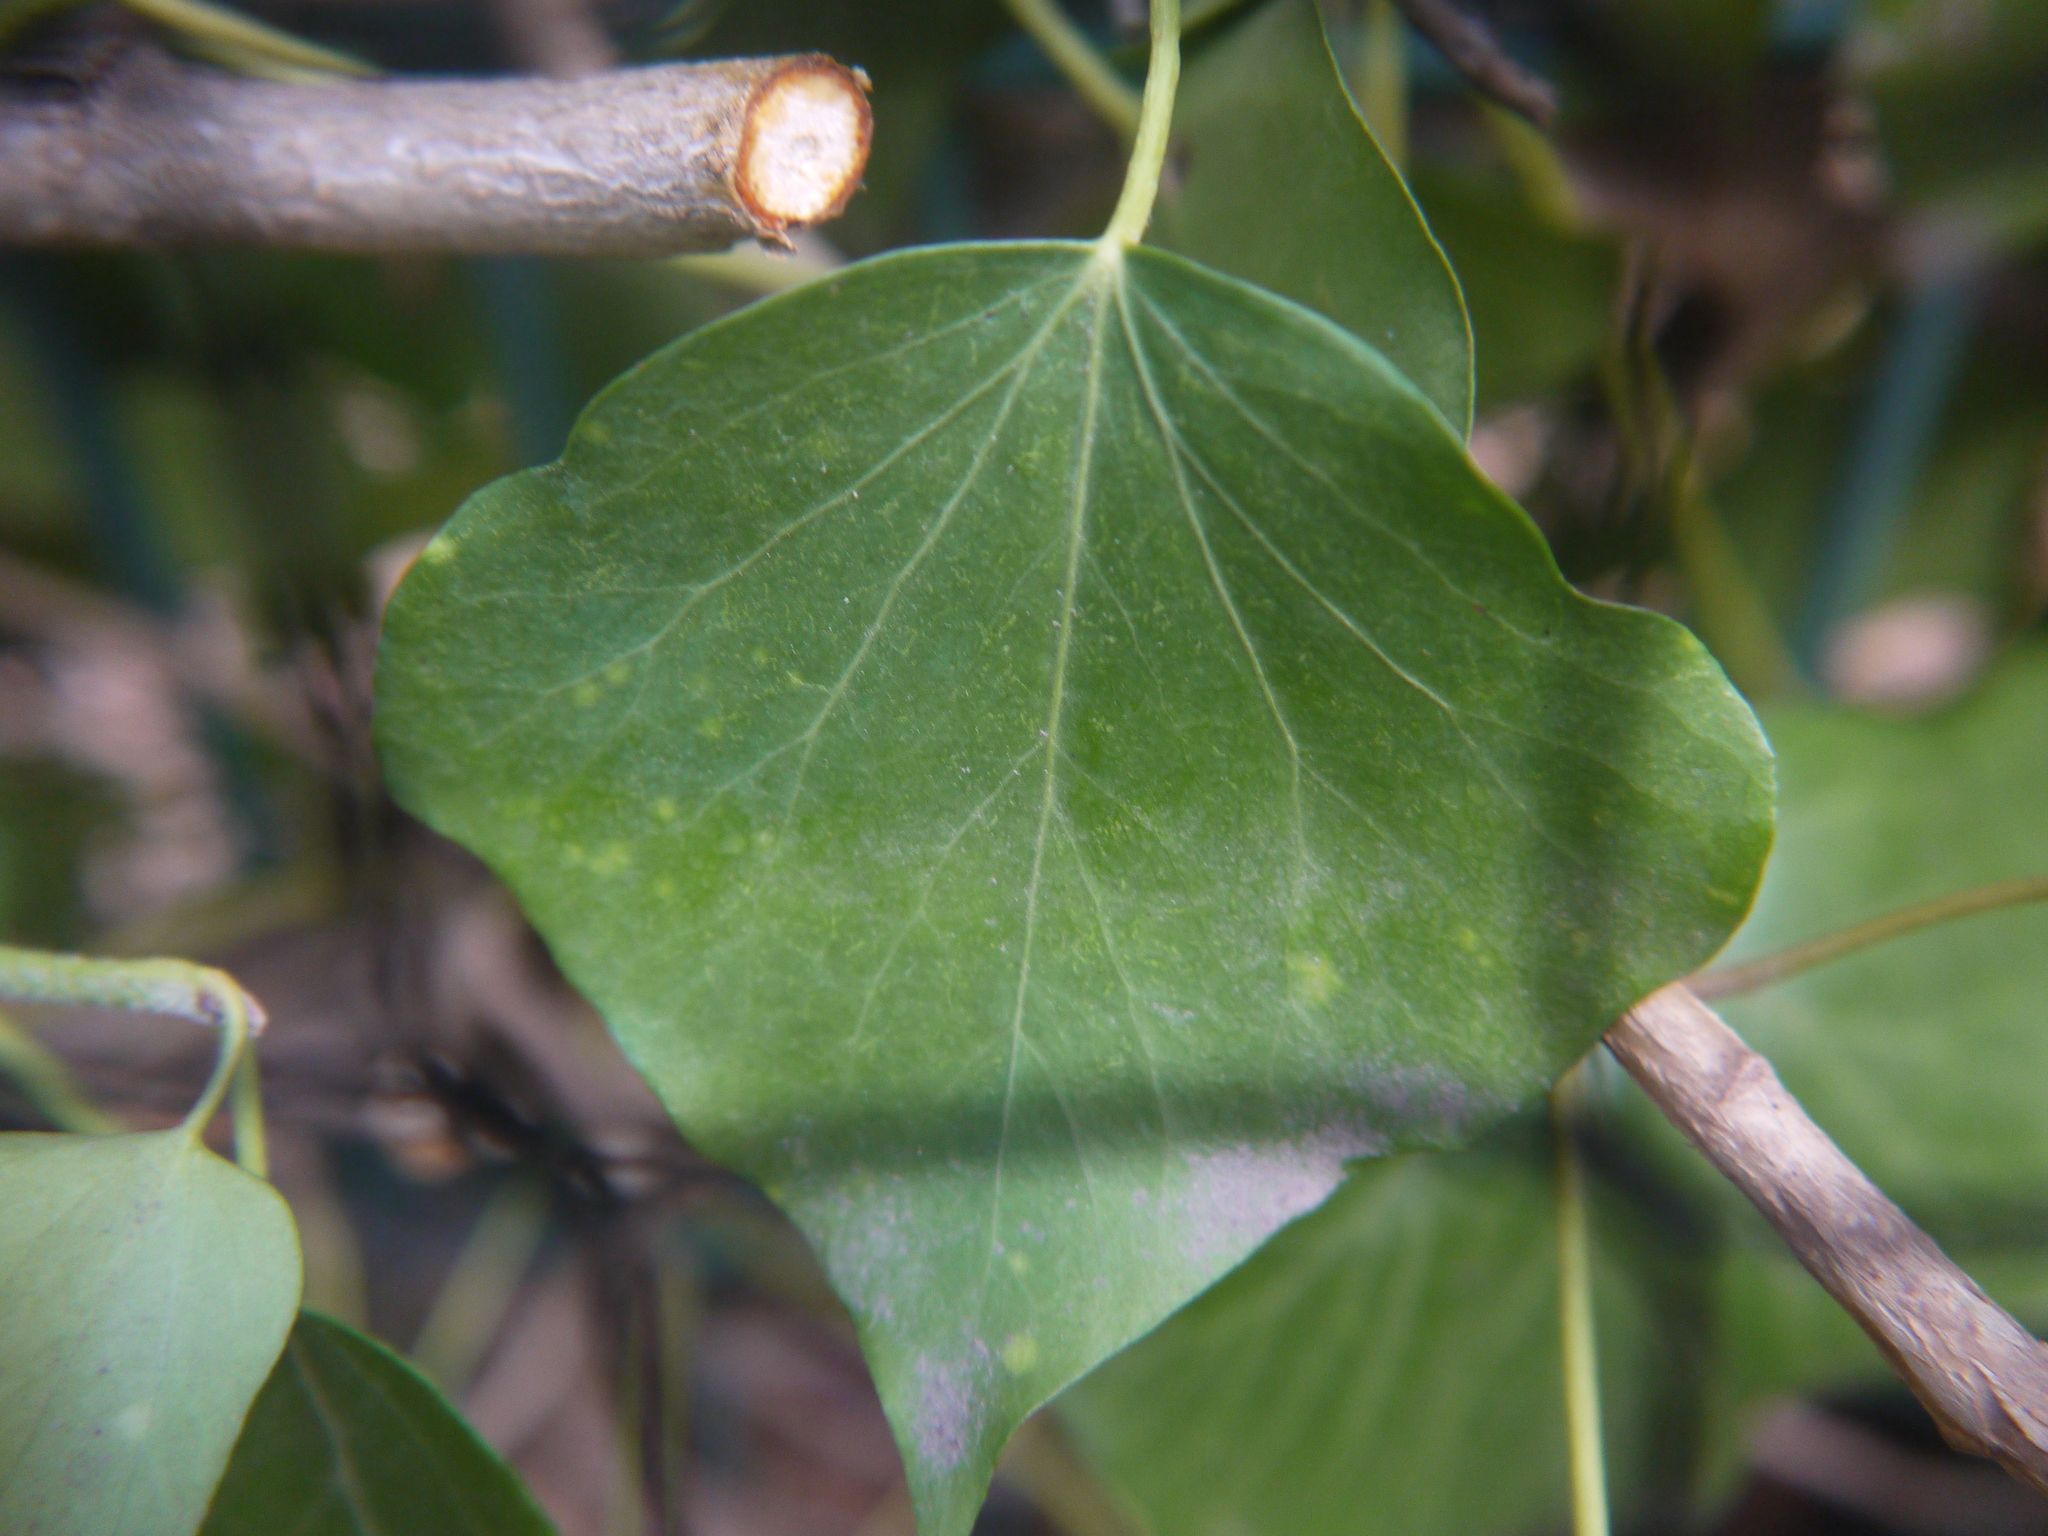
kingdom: Plantae
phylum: Tracheophyta
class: Magnoliopsida
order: Apiales
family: Araliaceae
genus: Hedera
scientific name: Hedera helix
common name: Ivy
